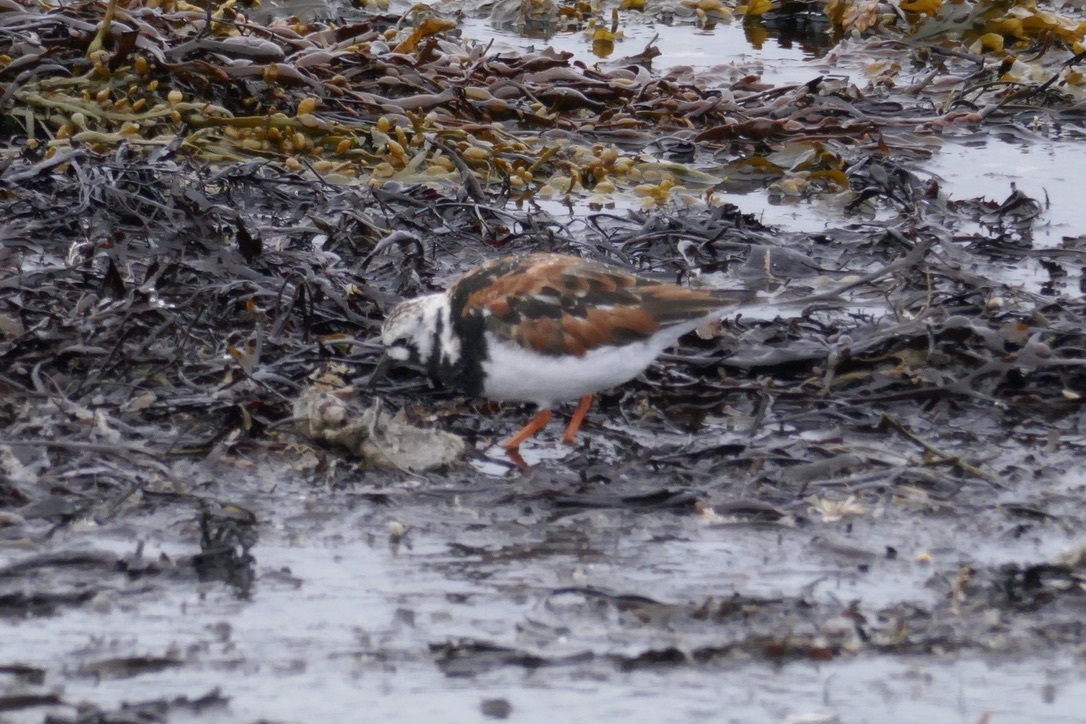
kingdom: Animalia
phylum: Chordata
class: Aves
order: Charadriiformes
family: Scolopacidae
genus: Arenaria
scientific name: Arenaria interpres
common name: Ruddy turnstone
